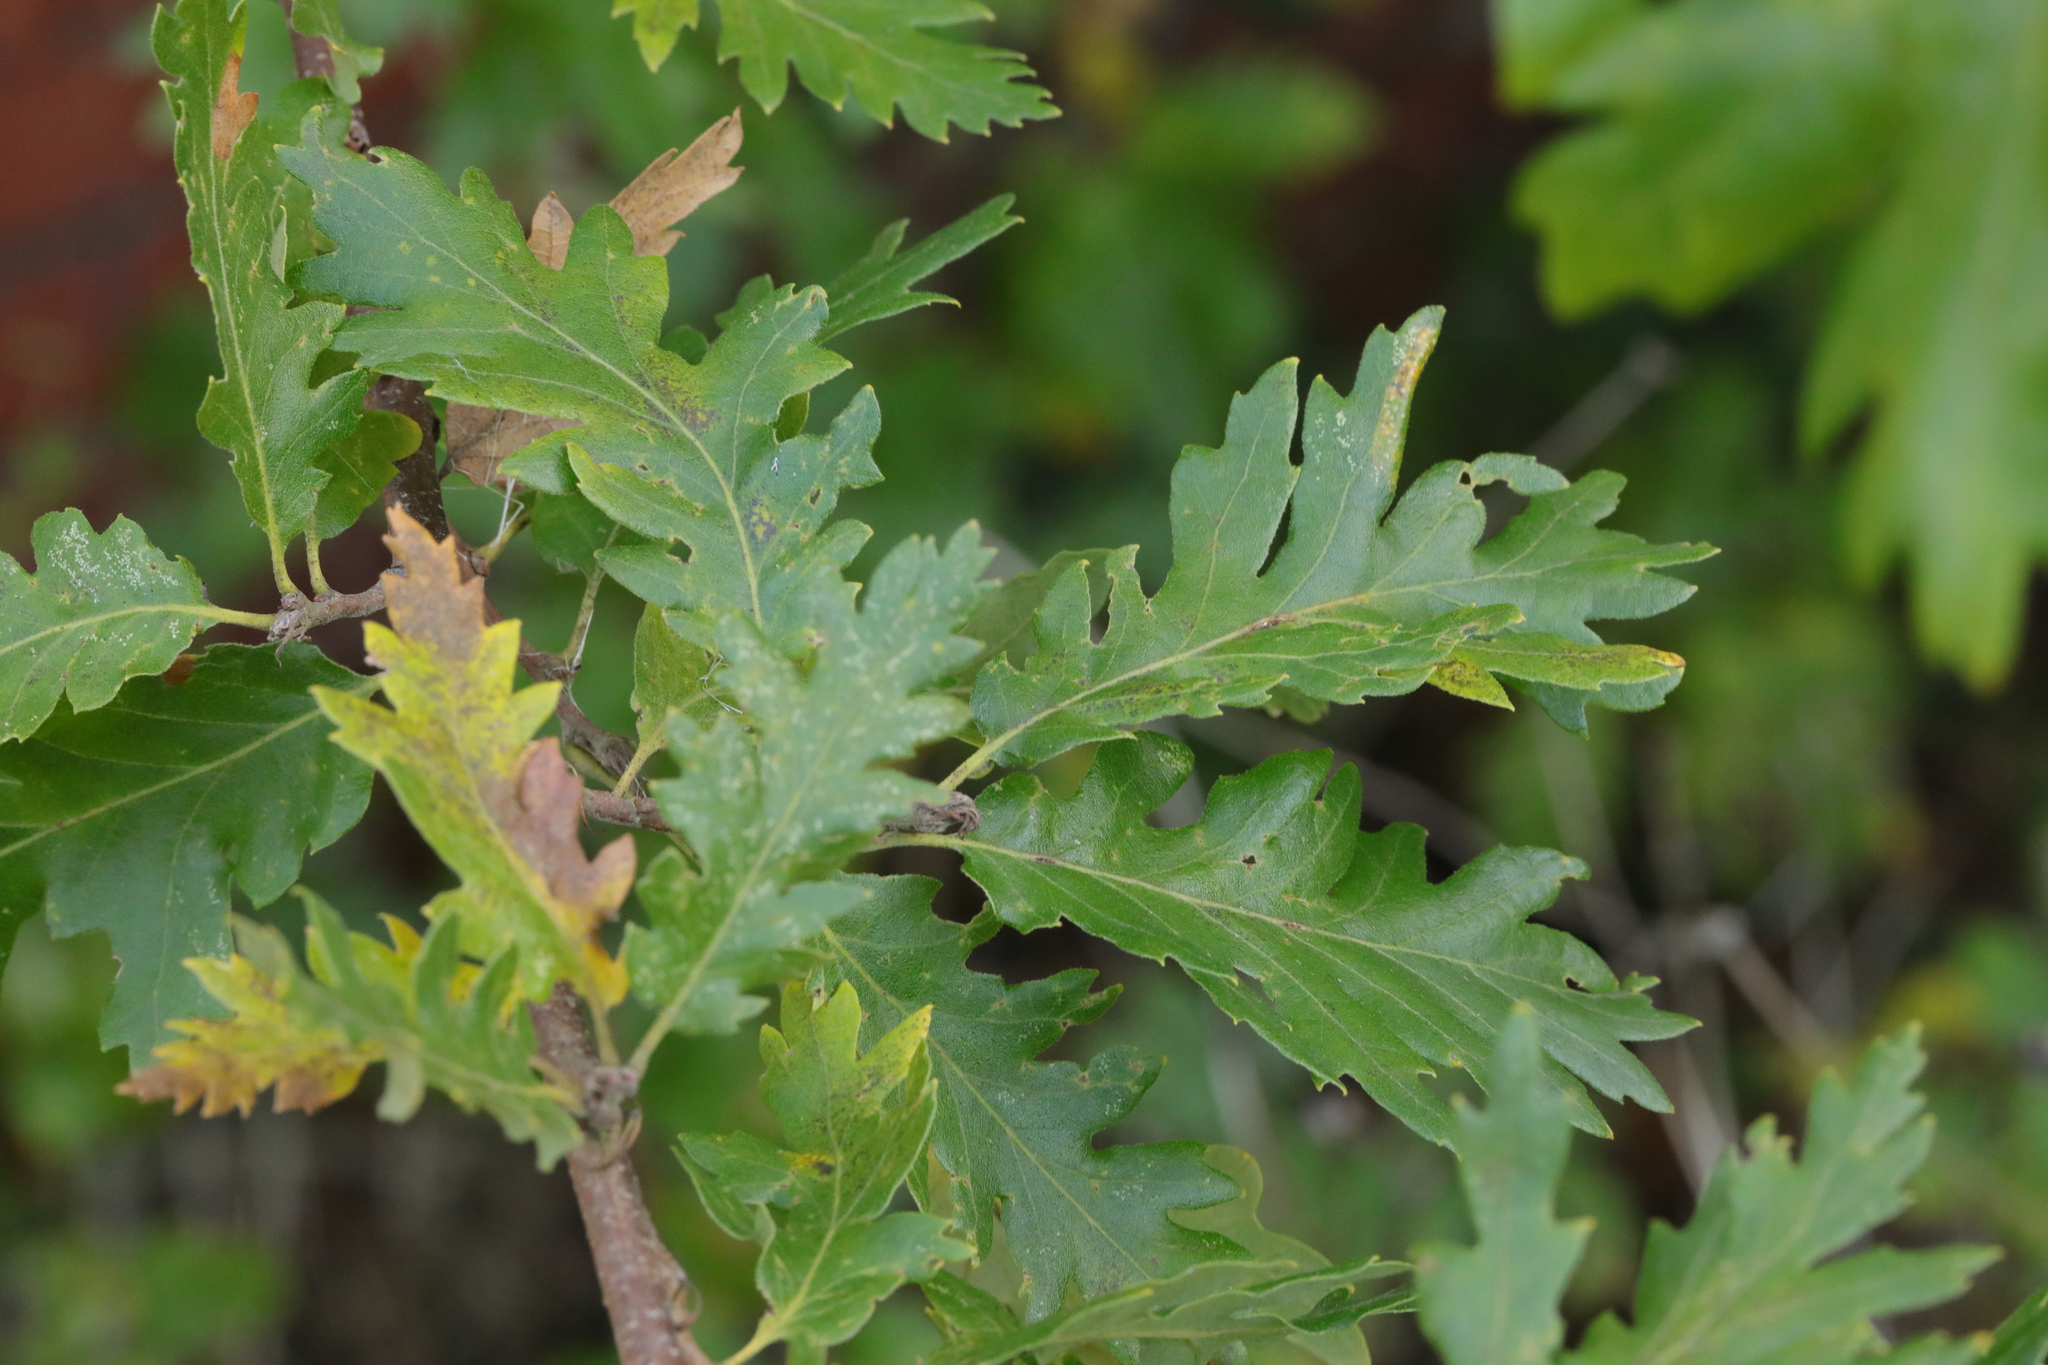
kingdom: Plantae
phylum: Tracheophyta
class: Magnoliopsida
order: Fagales
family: Fagaceae
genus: Quercus
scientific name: Quercus cerris
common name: Turkey oak
